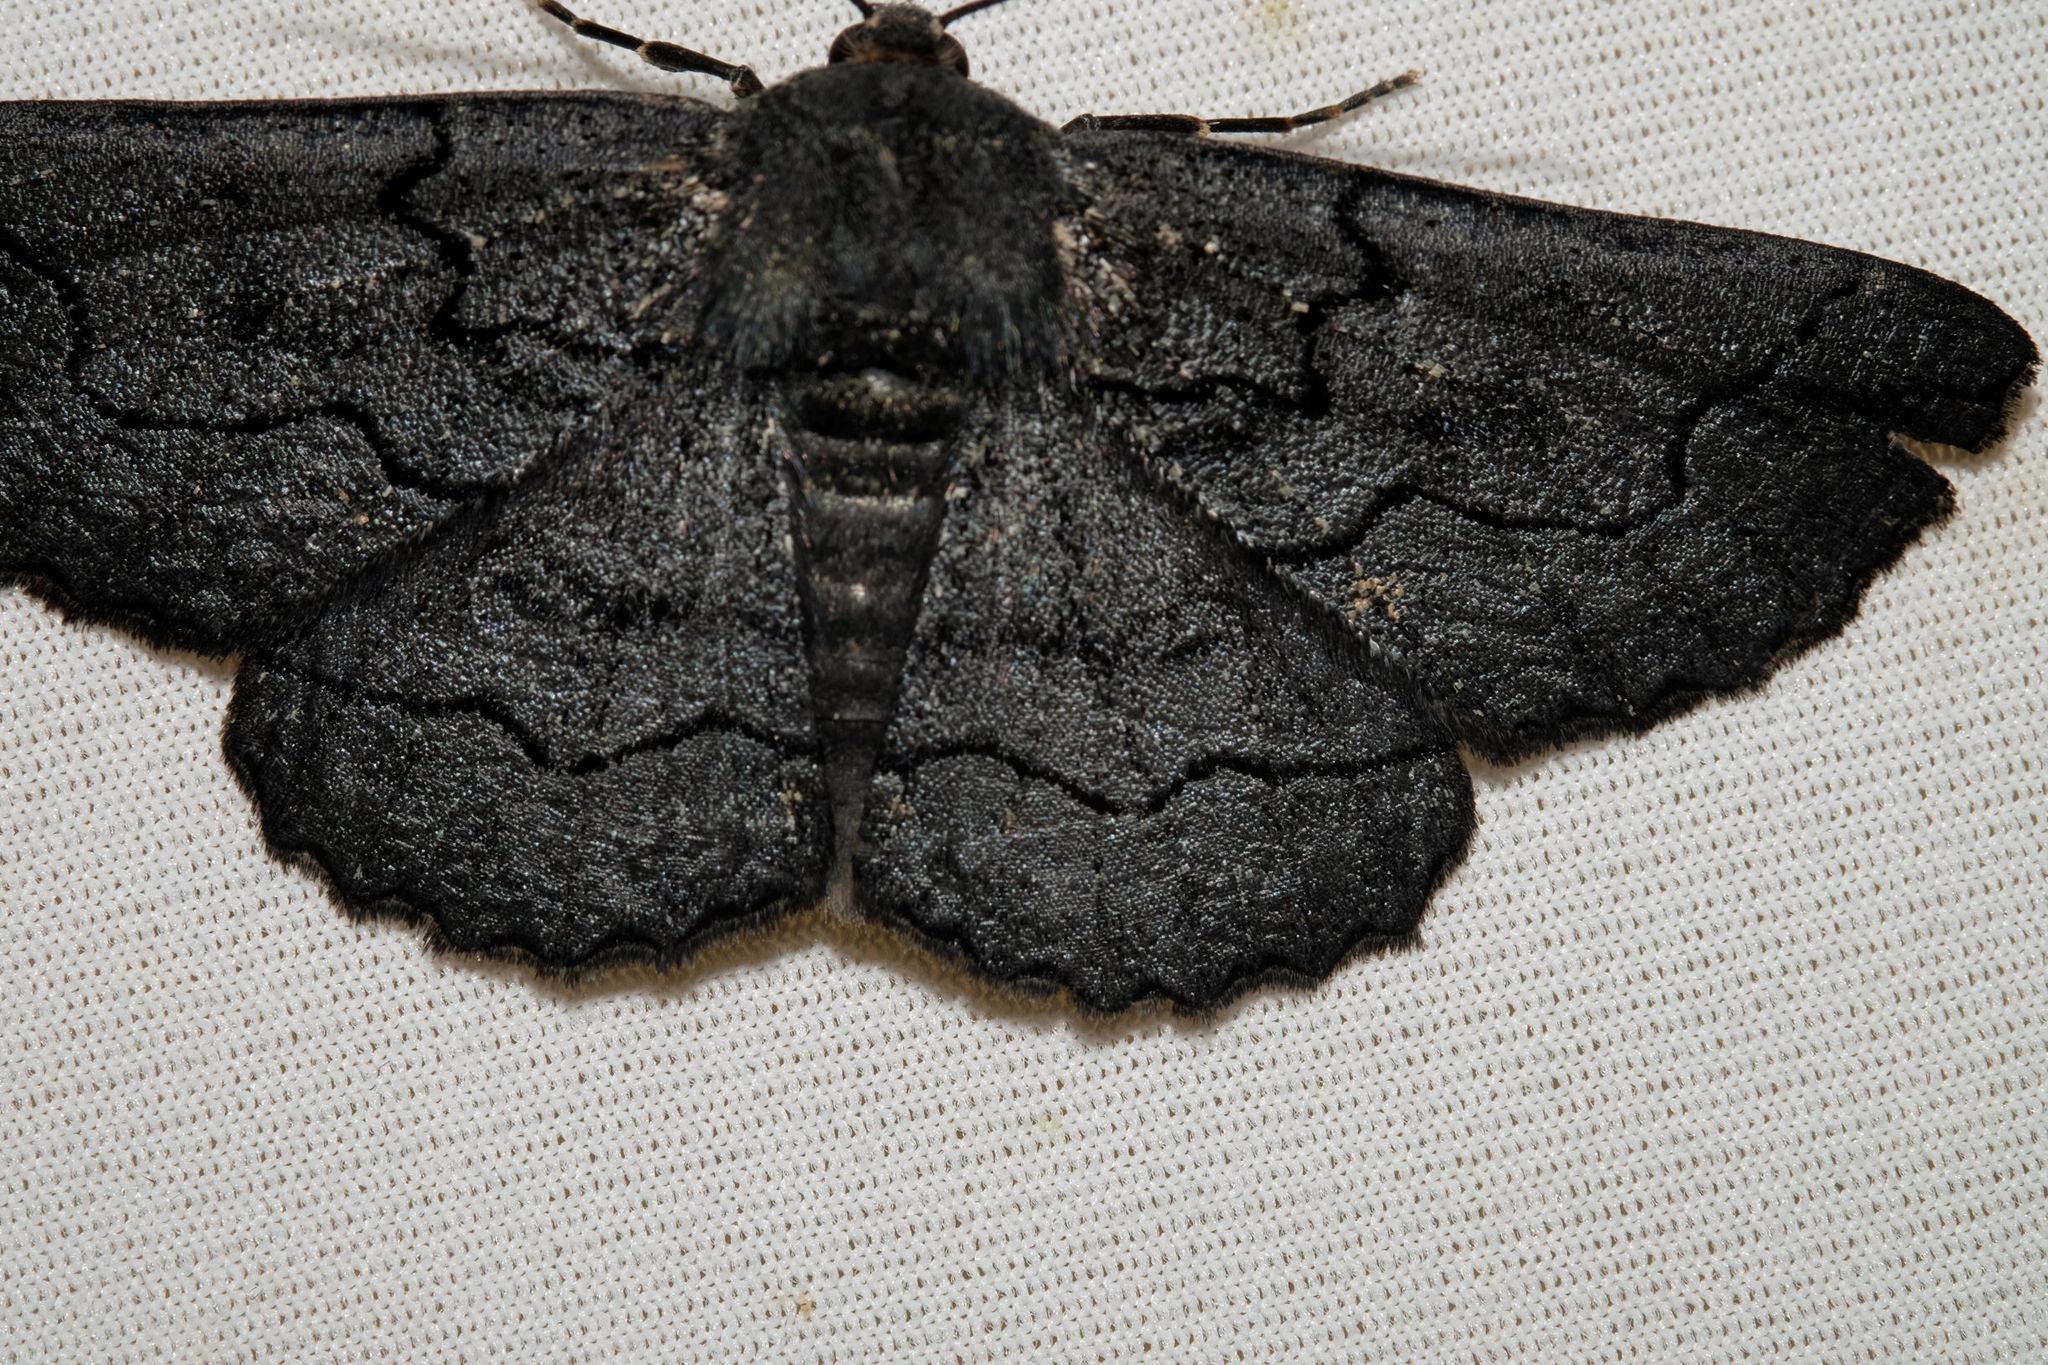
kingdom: Animalia
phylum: Arthropoda
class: Insecta
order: Lepidoptera
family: Geometridae
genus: Melanodes
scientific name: Melanodes anthracitaria
